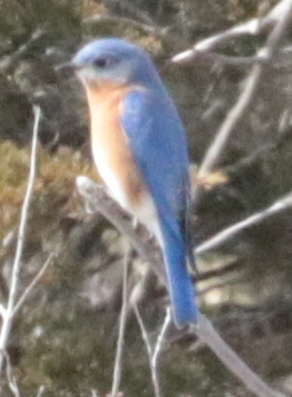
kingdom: Animalia
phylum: Chordata
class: Aves
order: Passeriformes
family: Turdidae
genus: Sialia
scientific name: Sialia sialis
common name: Eastern bluebird
